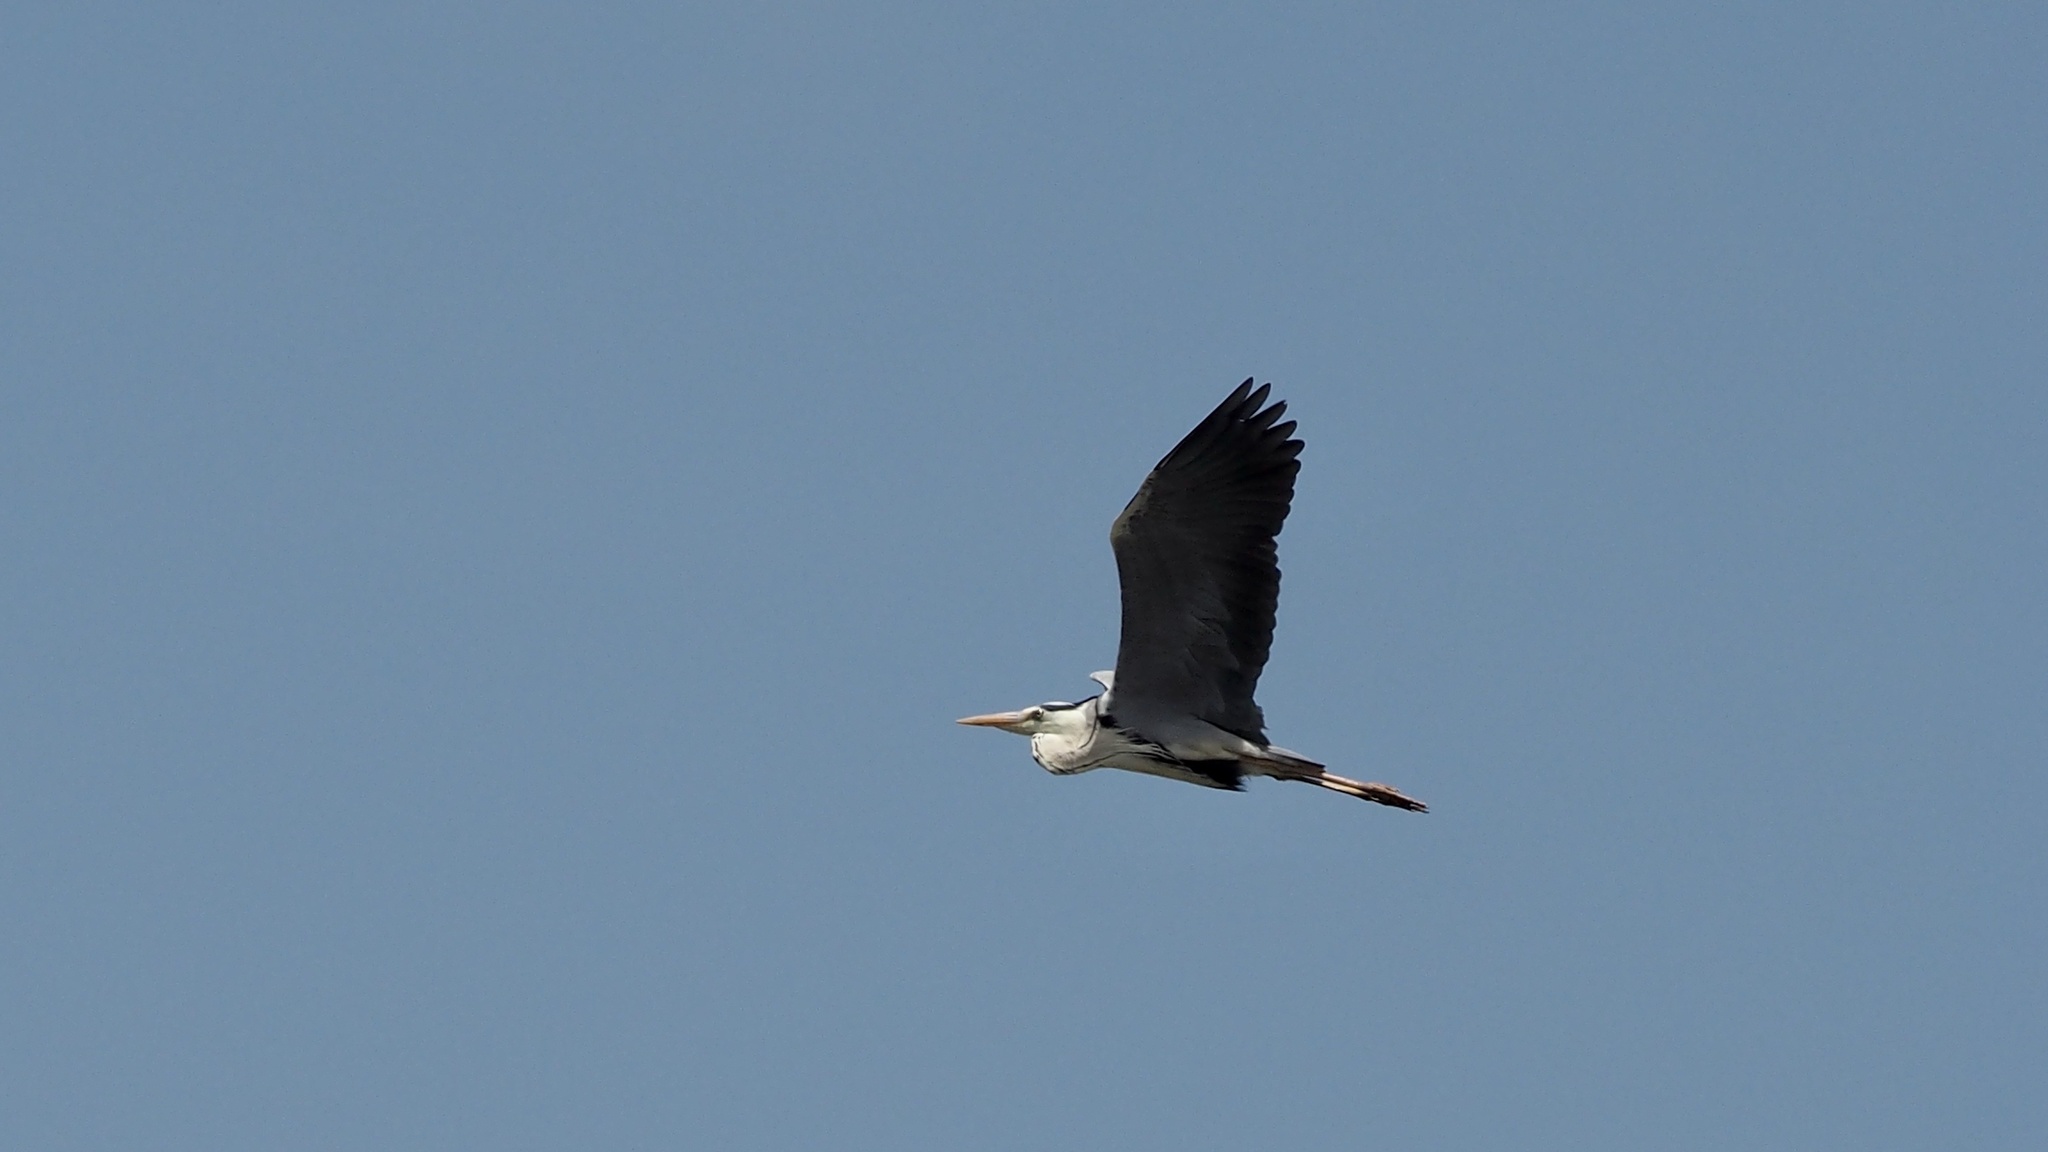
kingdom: Animalia
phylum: Chordata
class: Aves
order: Pelecaniformes
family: Ardeidae
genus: Ardea
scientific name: Ardea cinerea
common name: Grey heron
